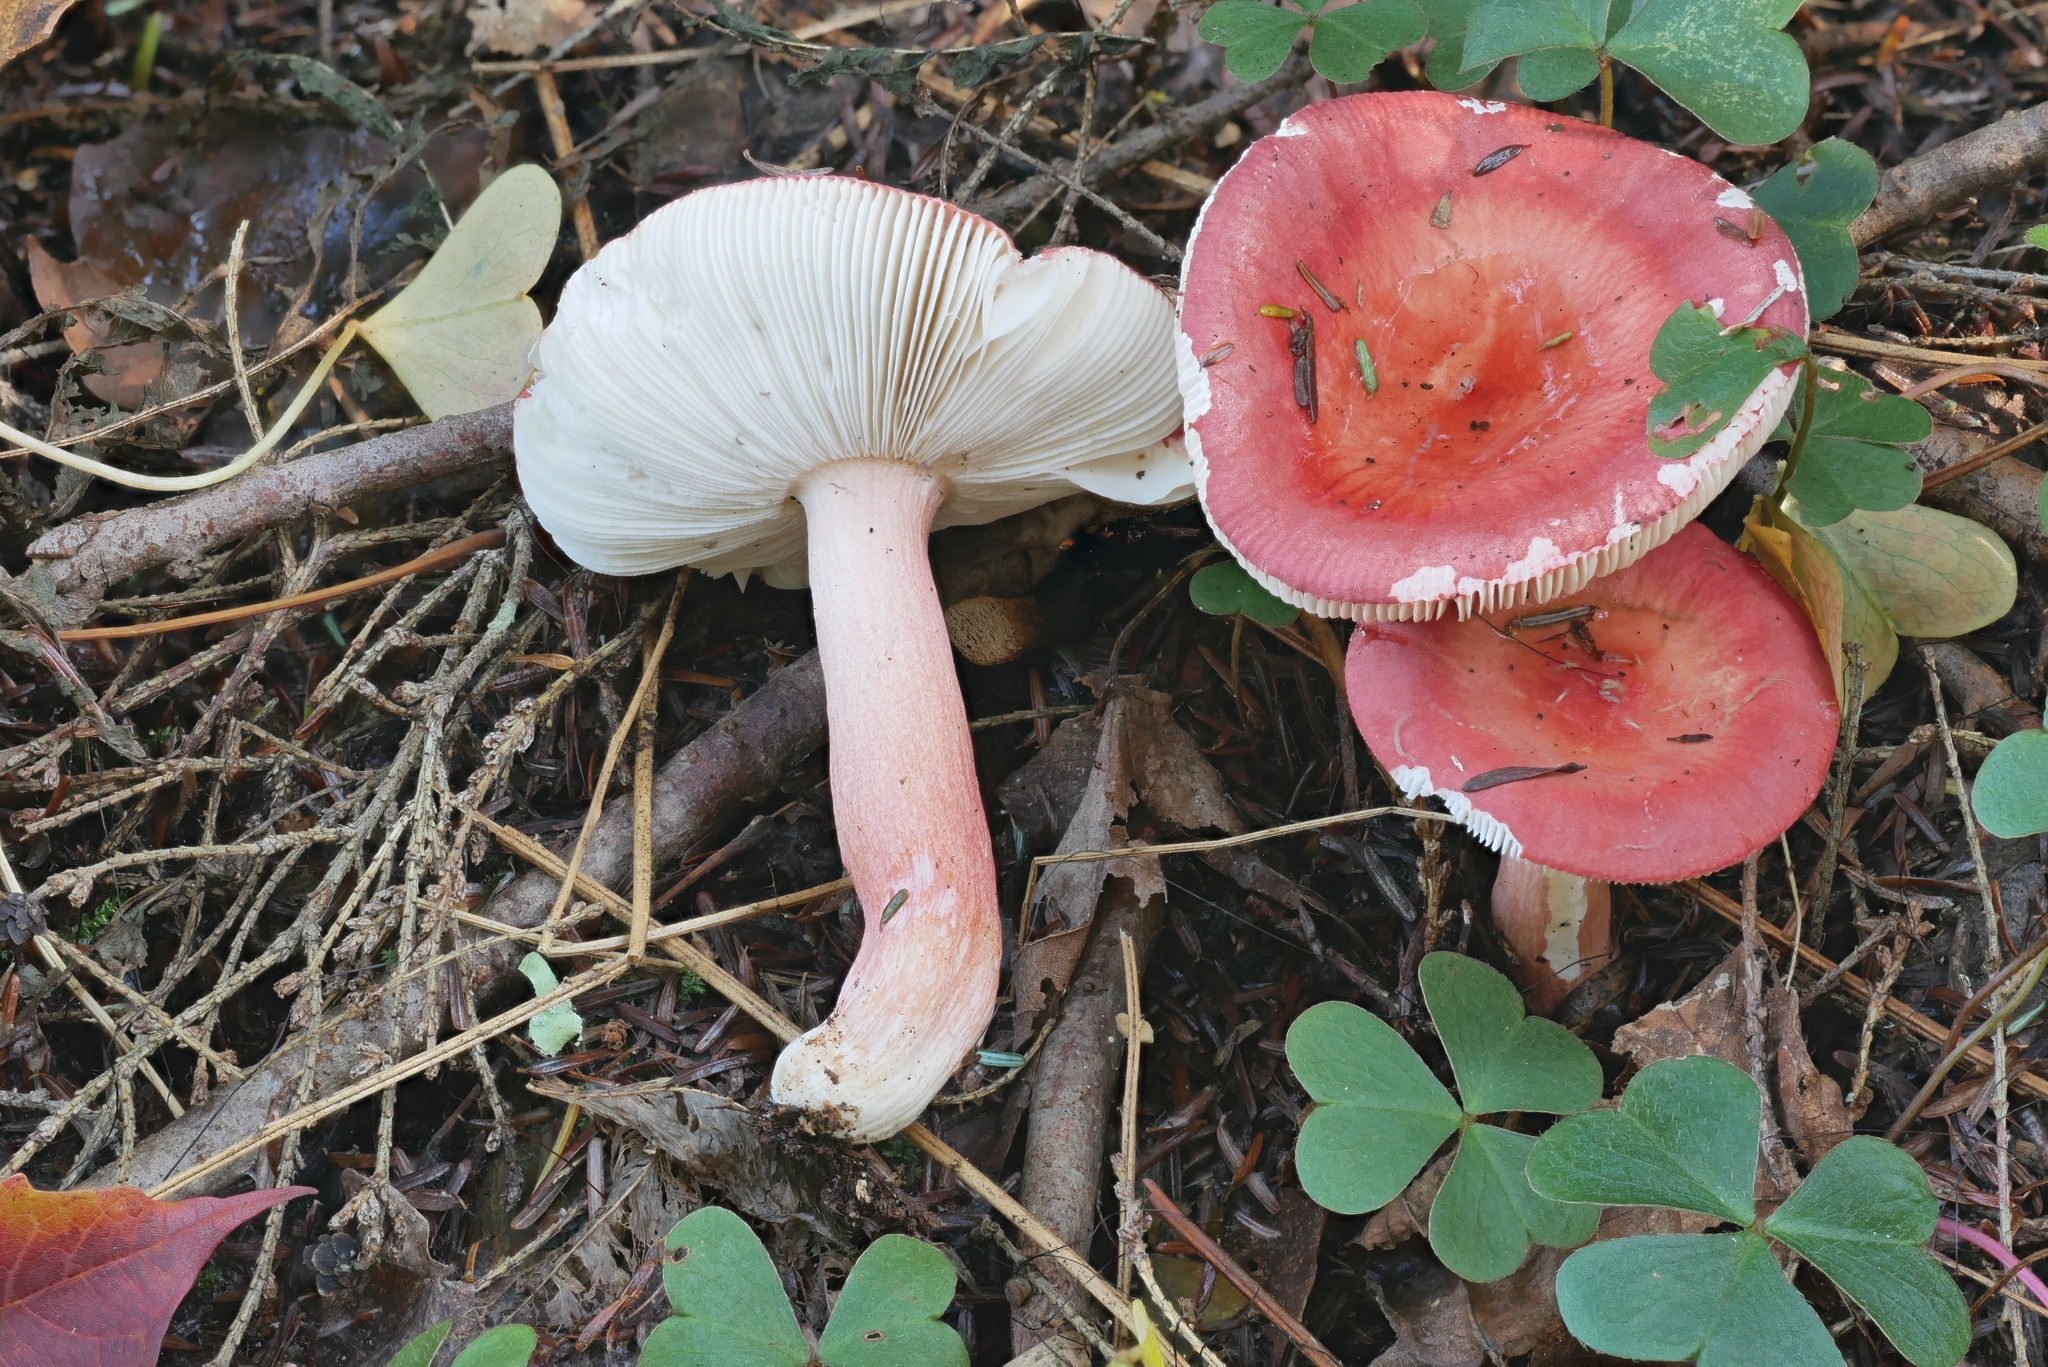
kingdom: Fungi
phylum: Basidiomycota
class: Agaricomycetes
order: Russulales
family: Russulaceae
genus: Russula
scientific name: Russula peckii
